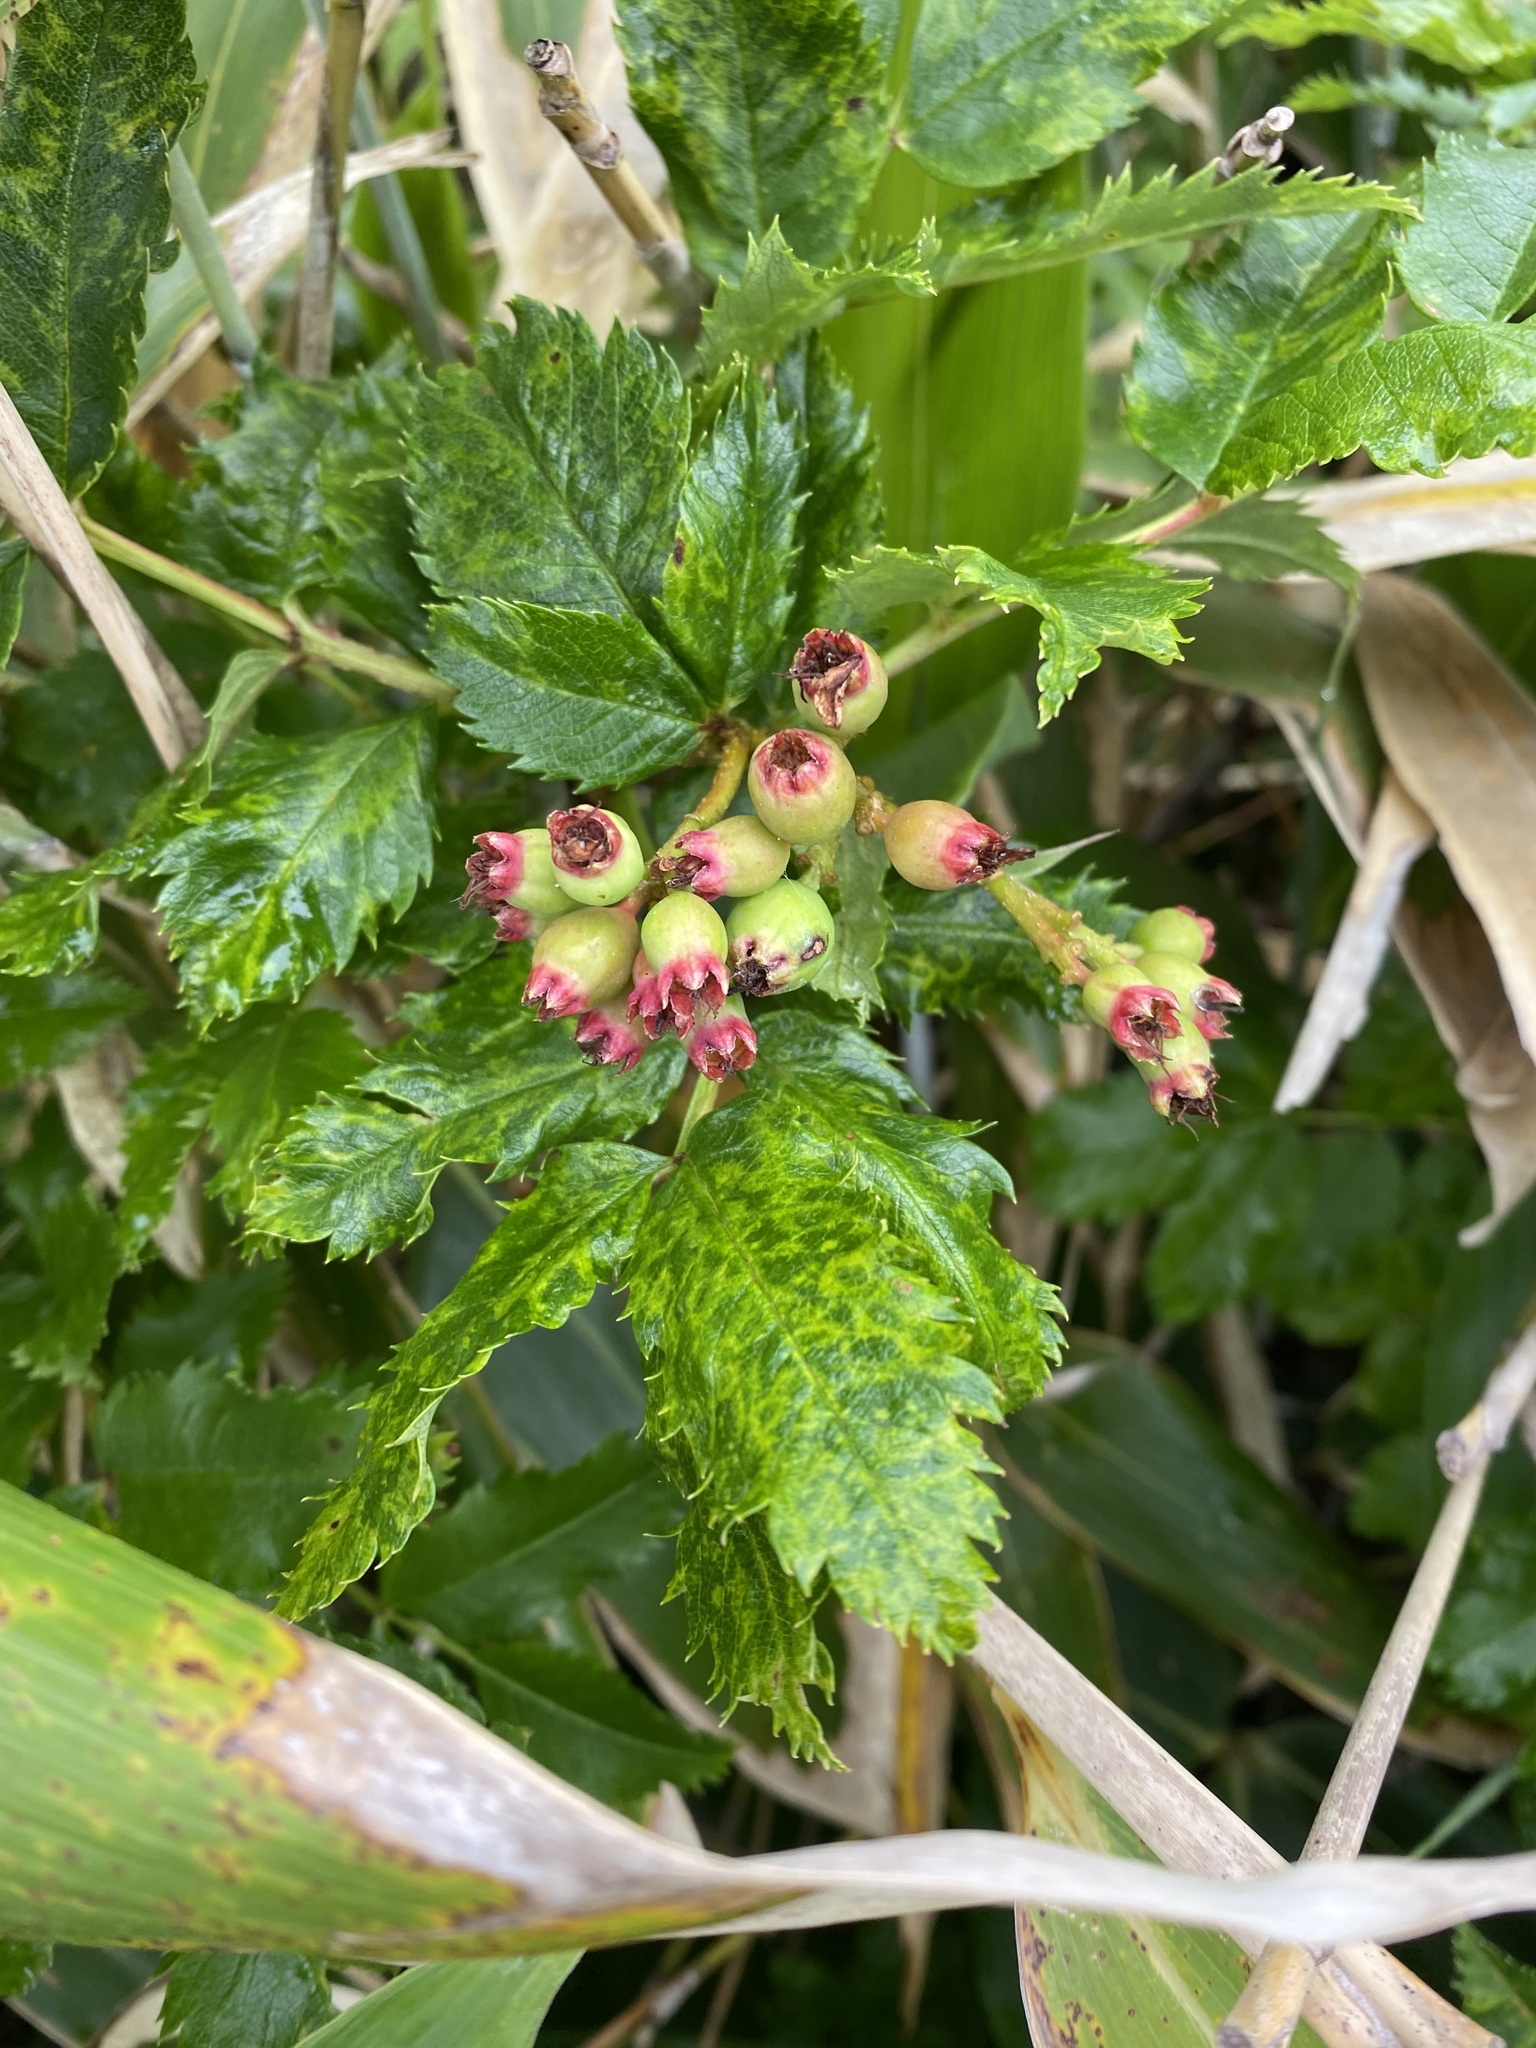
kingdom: Plantae
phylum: Tracheophyta
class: Magnoliopsida
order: Rosales
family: Rosaceae
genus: Sorbus
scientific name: Sorbus sambucifolia
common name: Siberian mountain-ash
